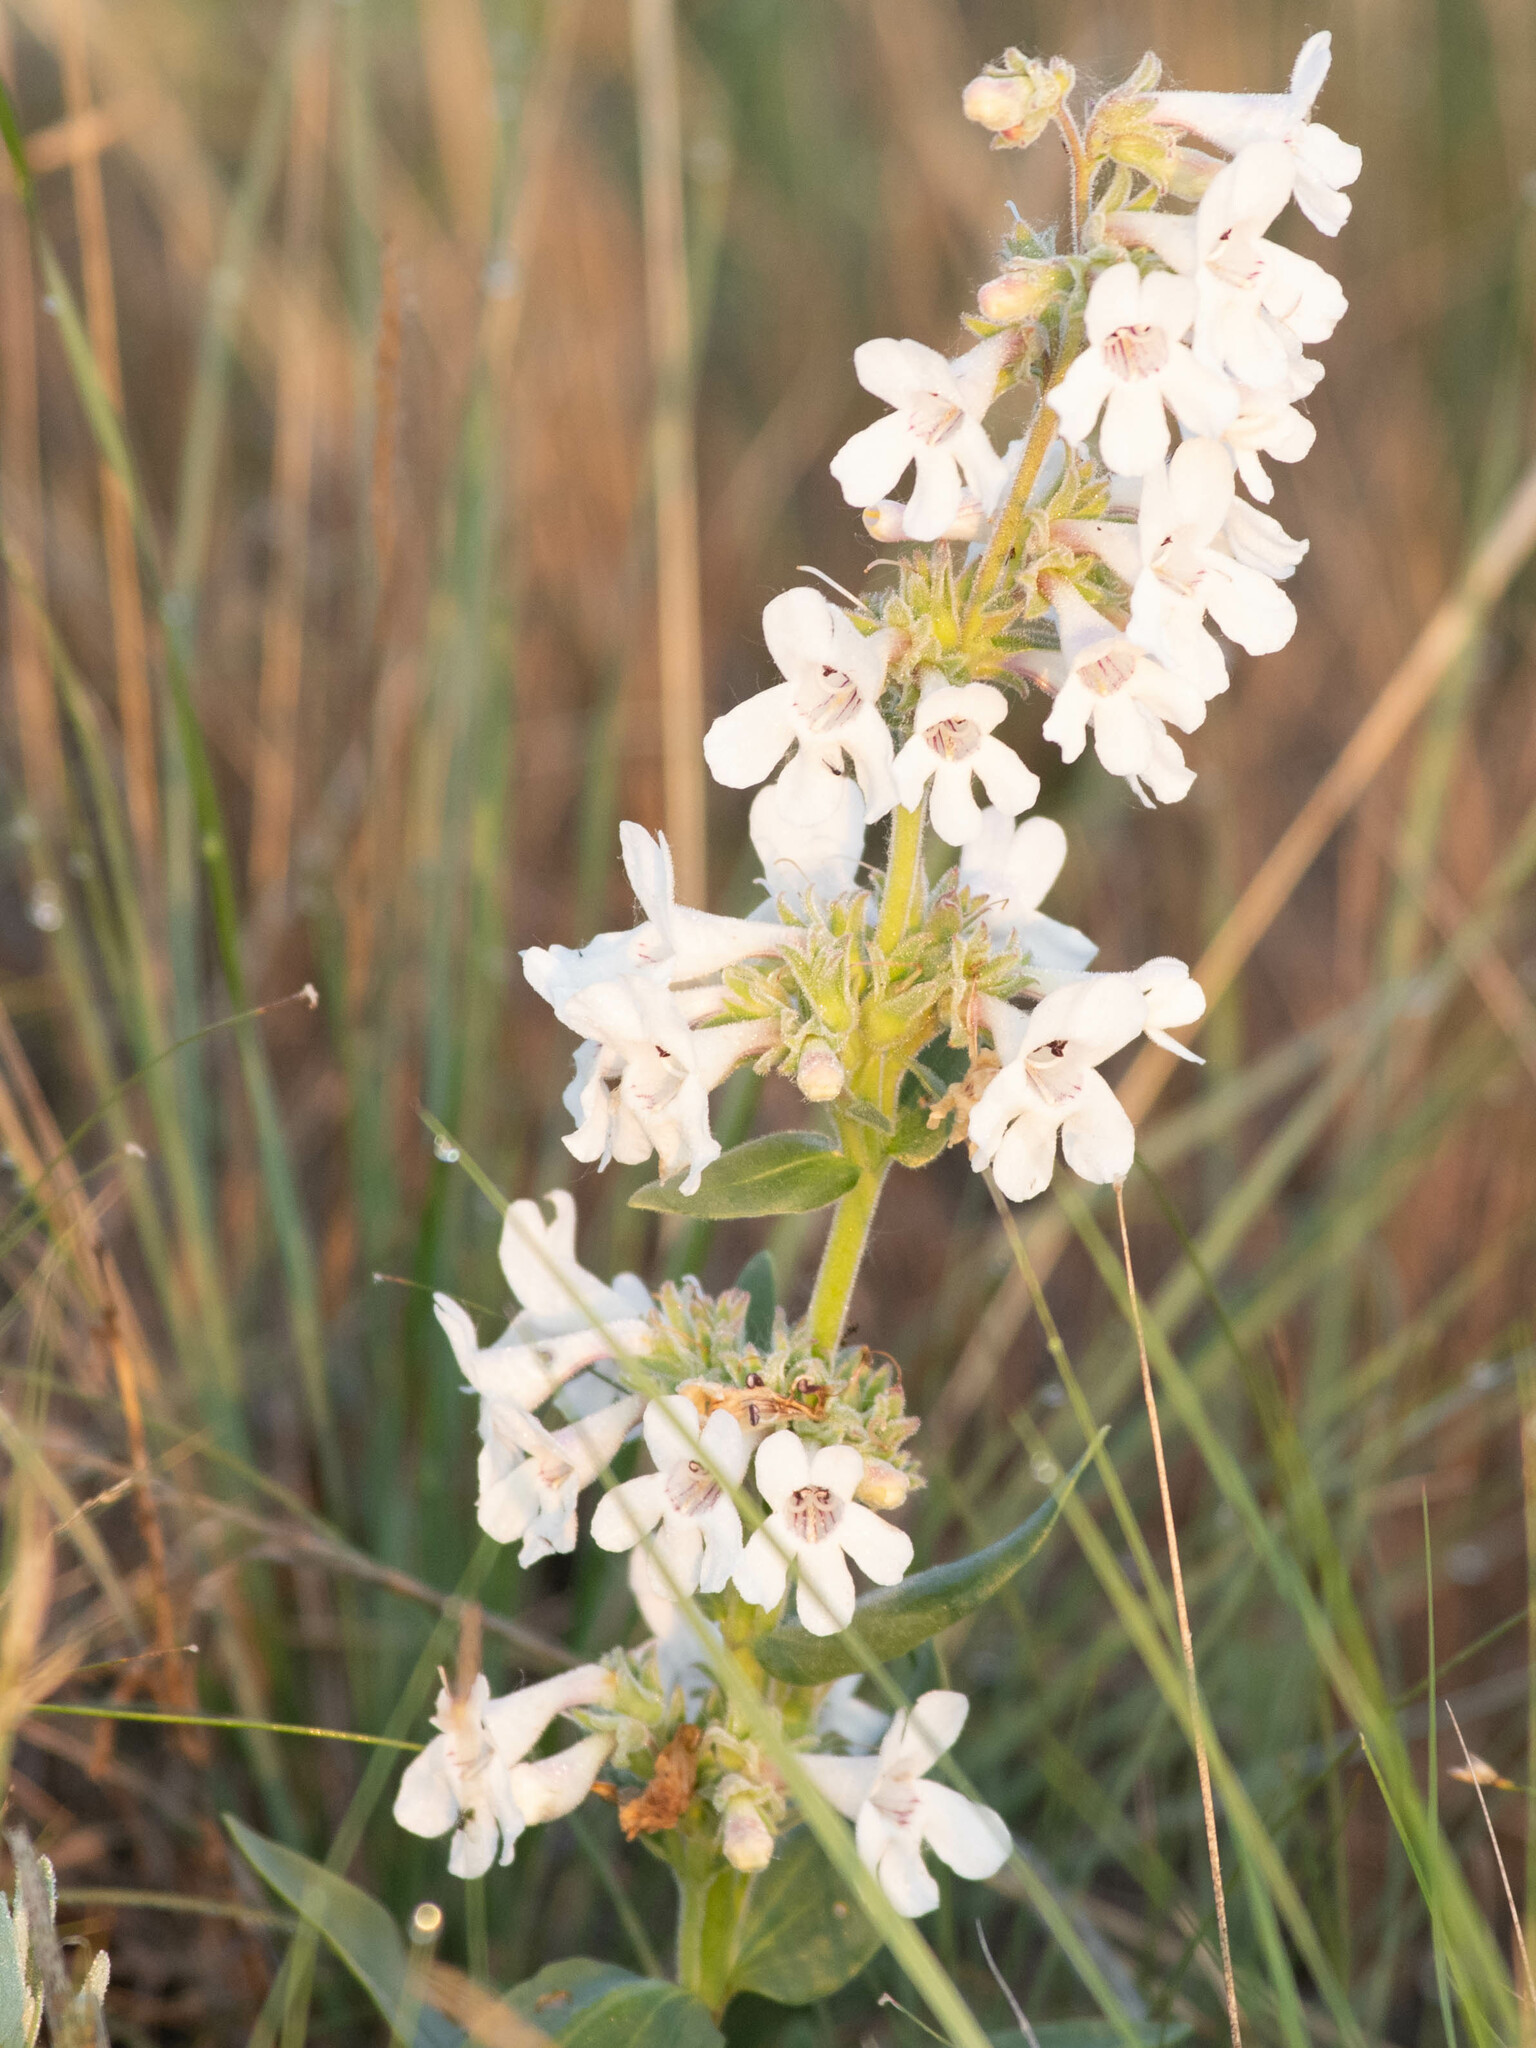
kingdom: Plantae
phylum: Tracheophyta
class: Magnoliopsida
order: Lamiales
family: Plantaginaceae
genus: Penstemon
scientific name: Penstemon albidus
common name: White beardtongue
